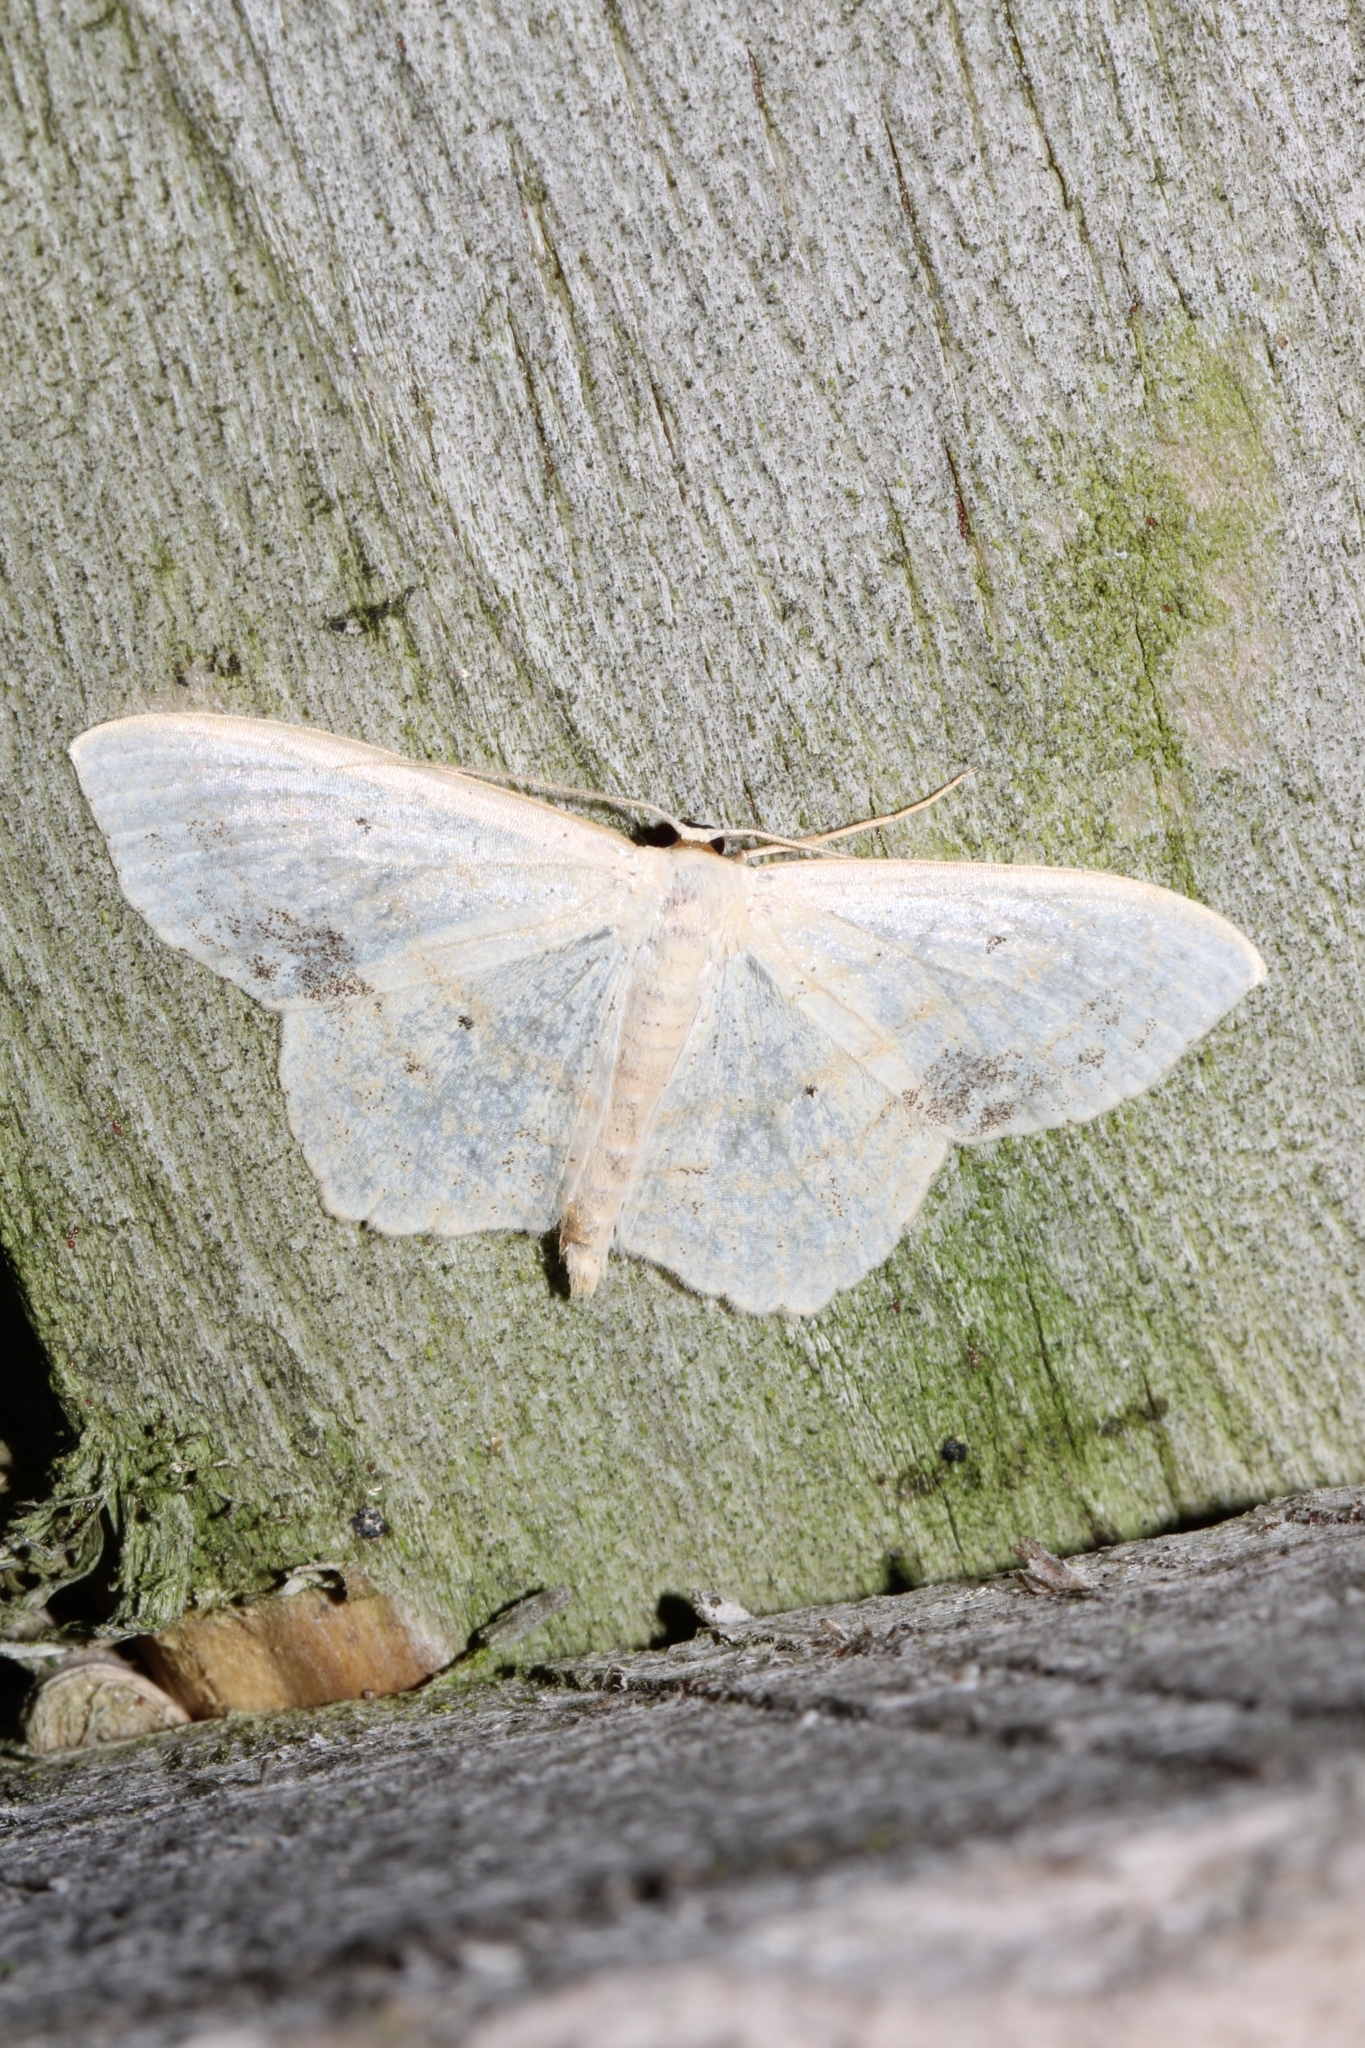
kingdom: Animalia
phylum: Arthropoda
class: Insecta
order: Lepidoptera
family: Geometridae
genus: Scopula
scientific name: Scopula limboundata
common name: Large lace border
